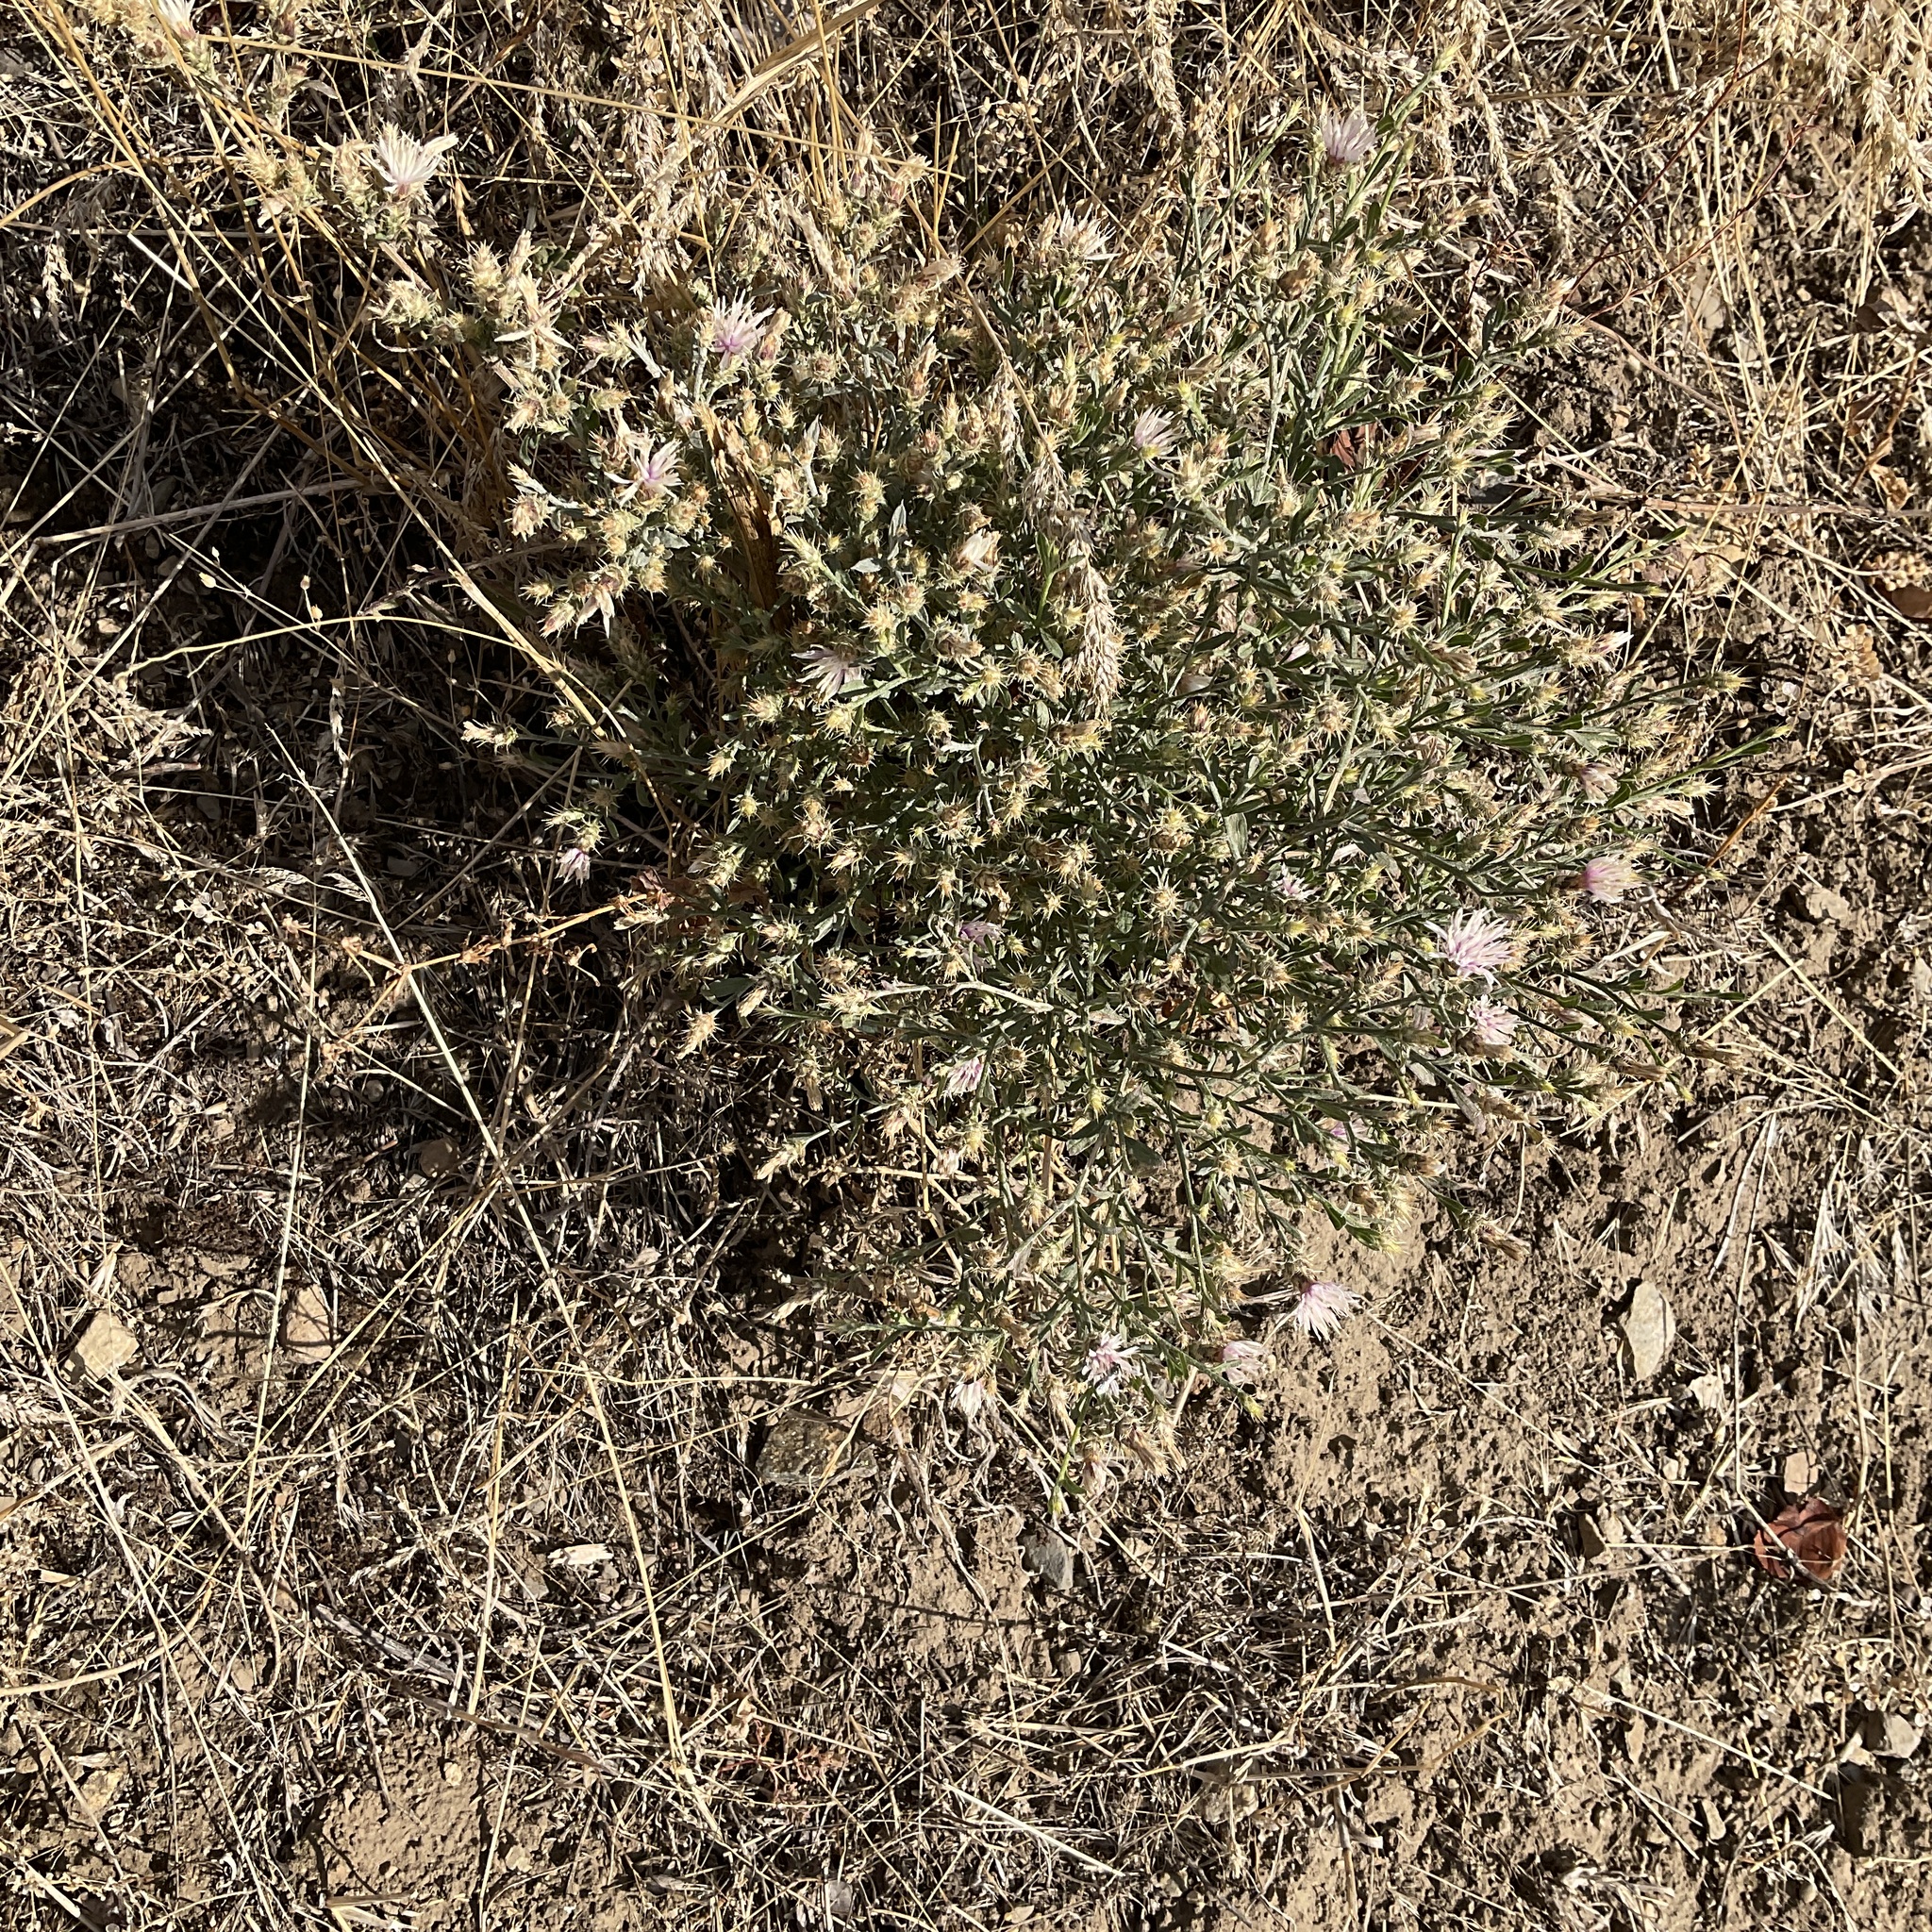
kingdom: Plantae
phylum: Tracheophyta
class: Magnoliopsida
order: Asterales
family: Asteraceae
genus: Centaurea
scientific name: Centaurea diffusa
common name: Diffuse knapweed
